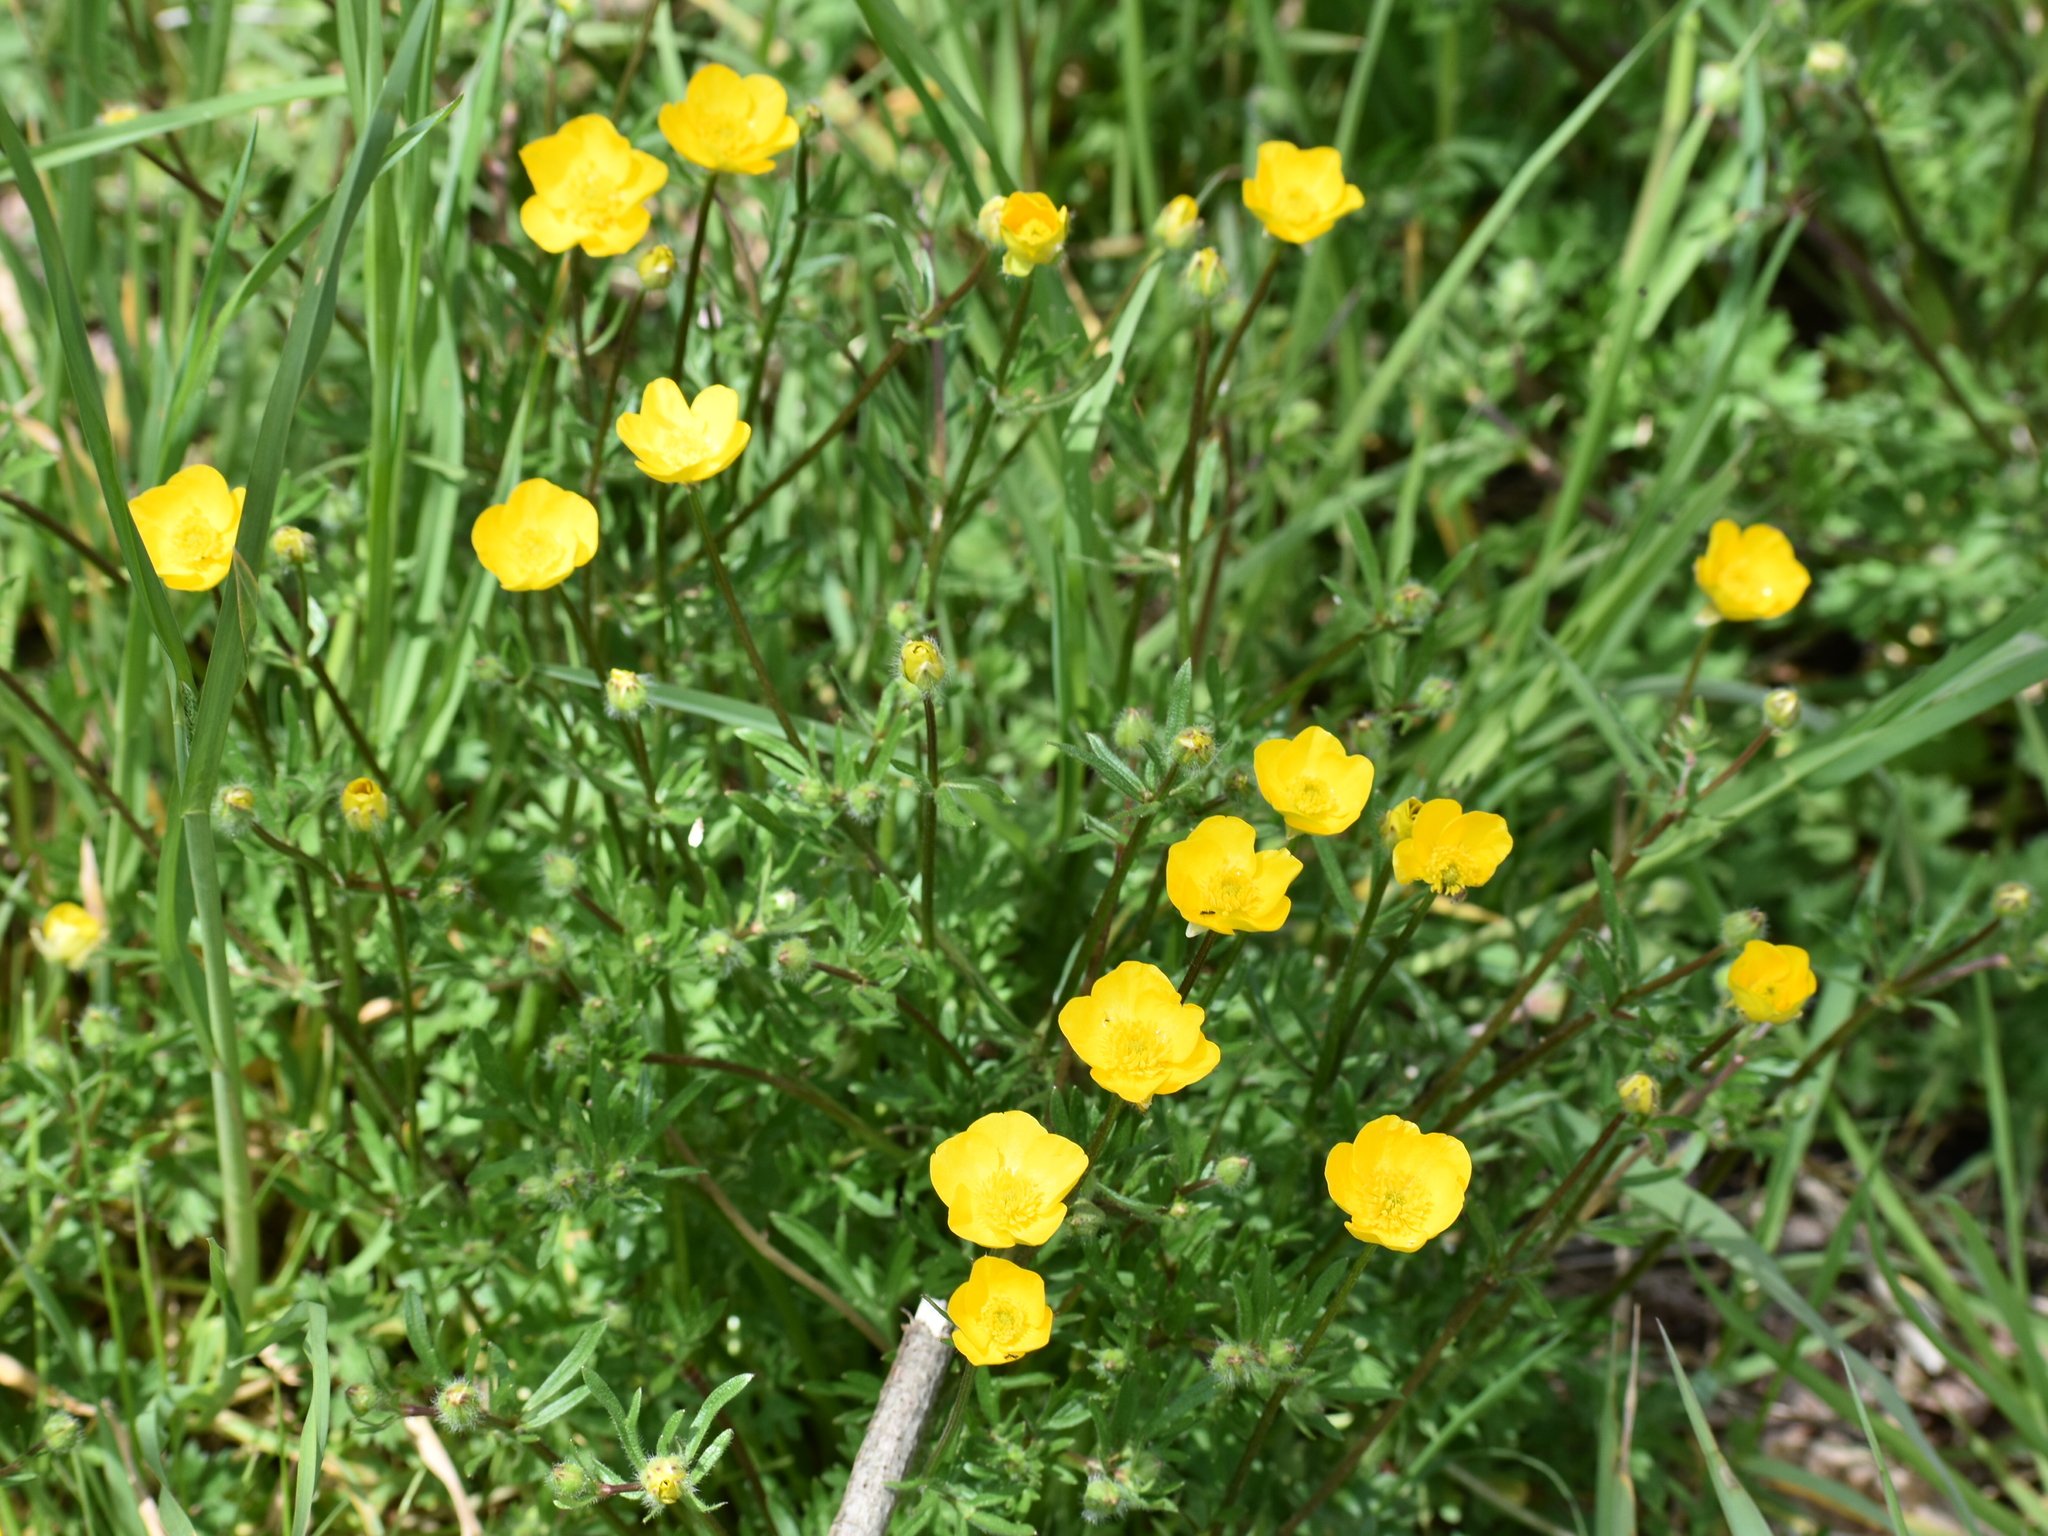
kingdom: Plantae
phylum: Tracheophyta
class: Magnoliopsida
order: Ranunculales
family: Ranunculaceae
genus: Ranunculus
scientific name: Ranunculus bulbosus
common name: Bulbous buttercup
